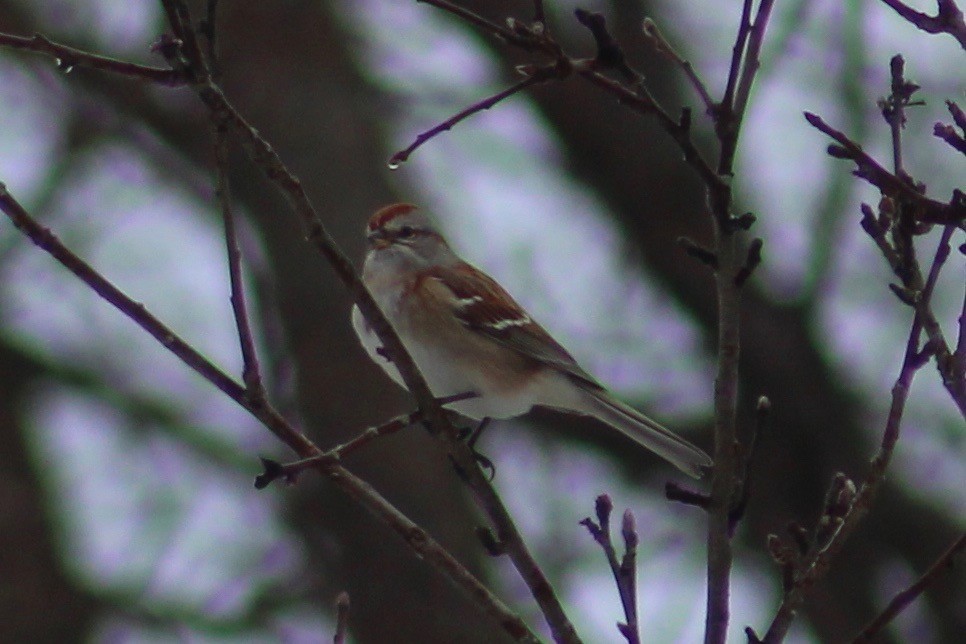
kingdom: Animalia
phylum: Chordata
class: Aves
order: Passeriformes
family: Passerellidae
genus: Spizelloides
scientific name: Spizelloides arborea
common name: American tree sparrow
